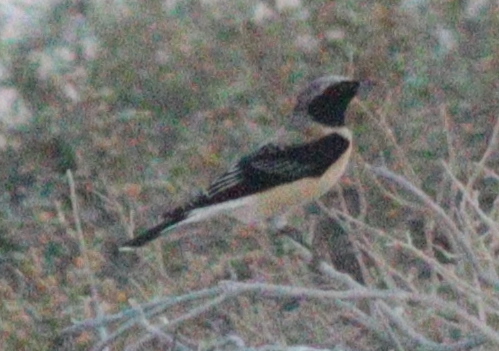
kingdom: Animalia
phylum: Chordata
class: Aves
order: Passeriformes
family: Muscicapidae
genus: Oenanthe
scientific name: Oenanthe hispanica
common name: Black-eared wheatear
